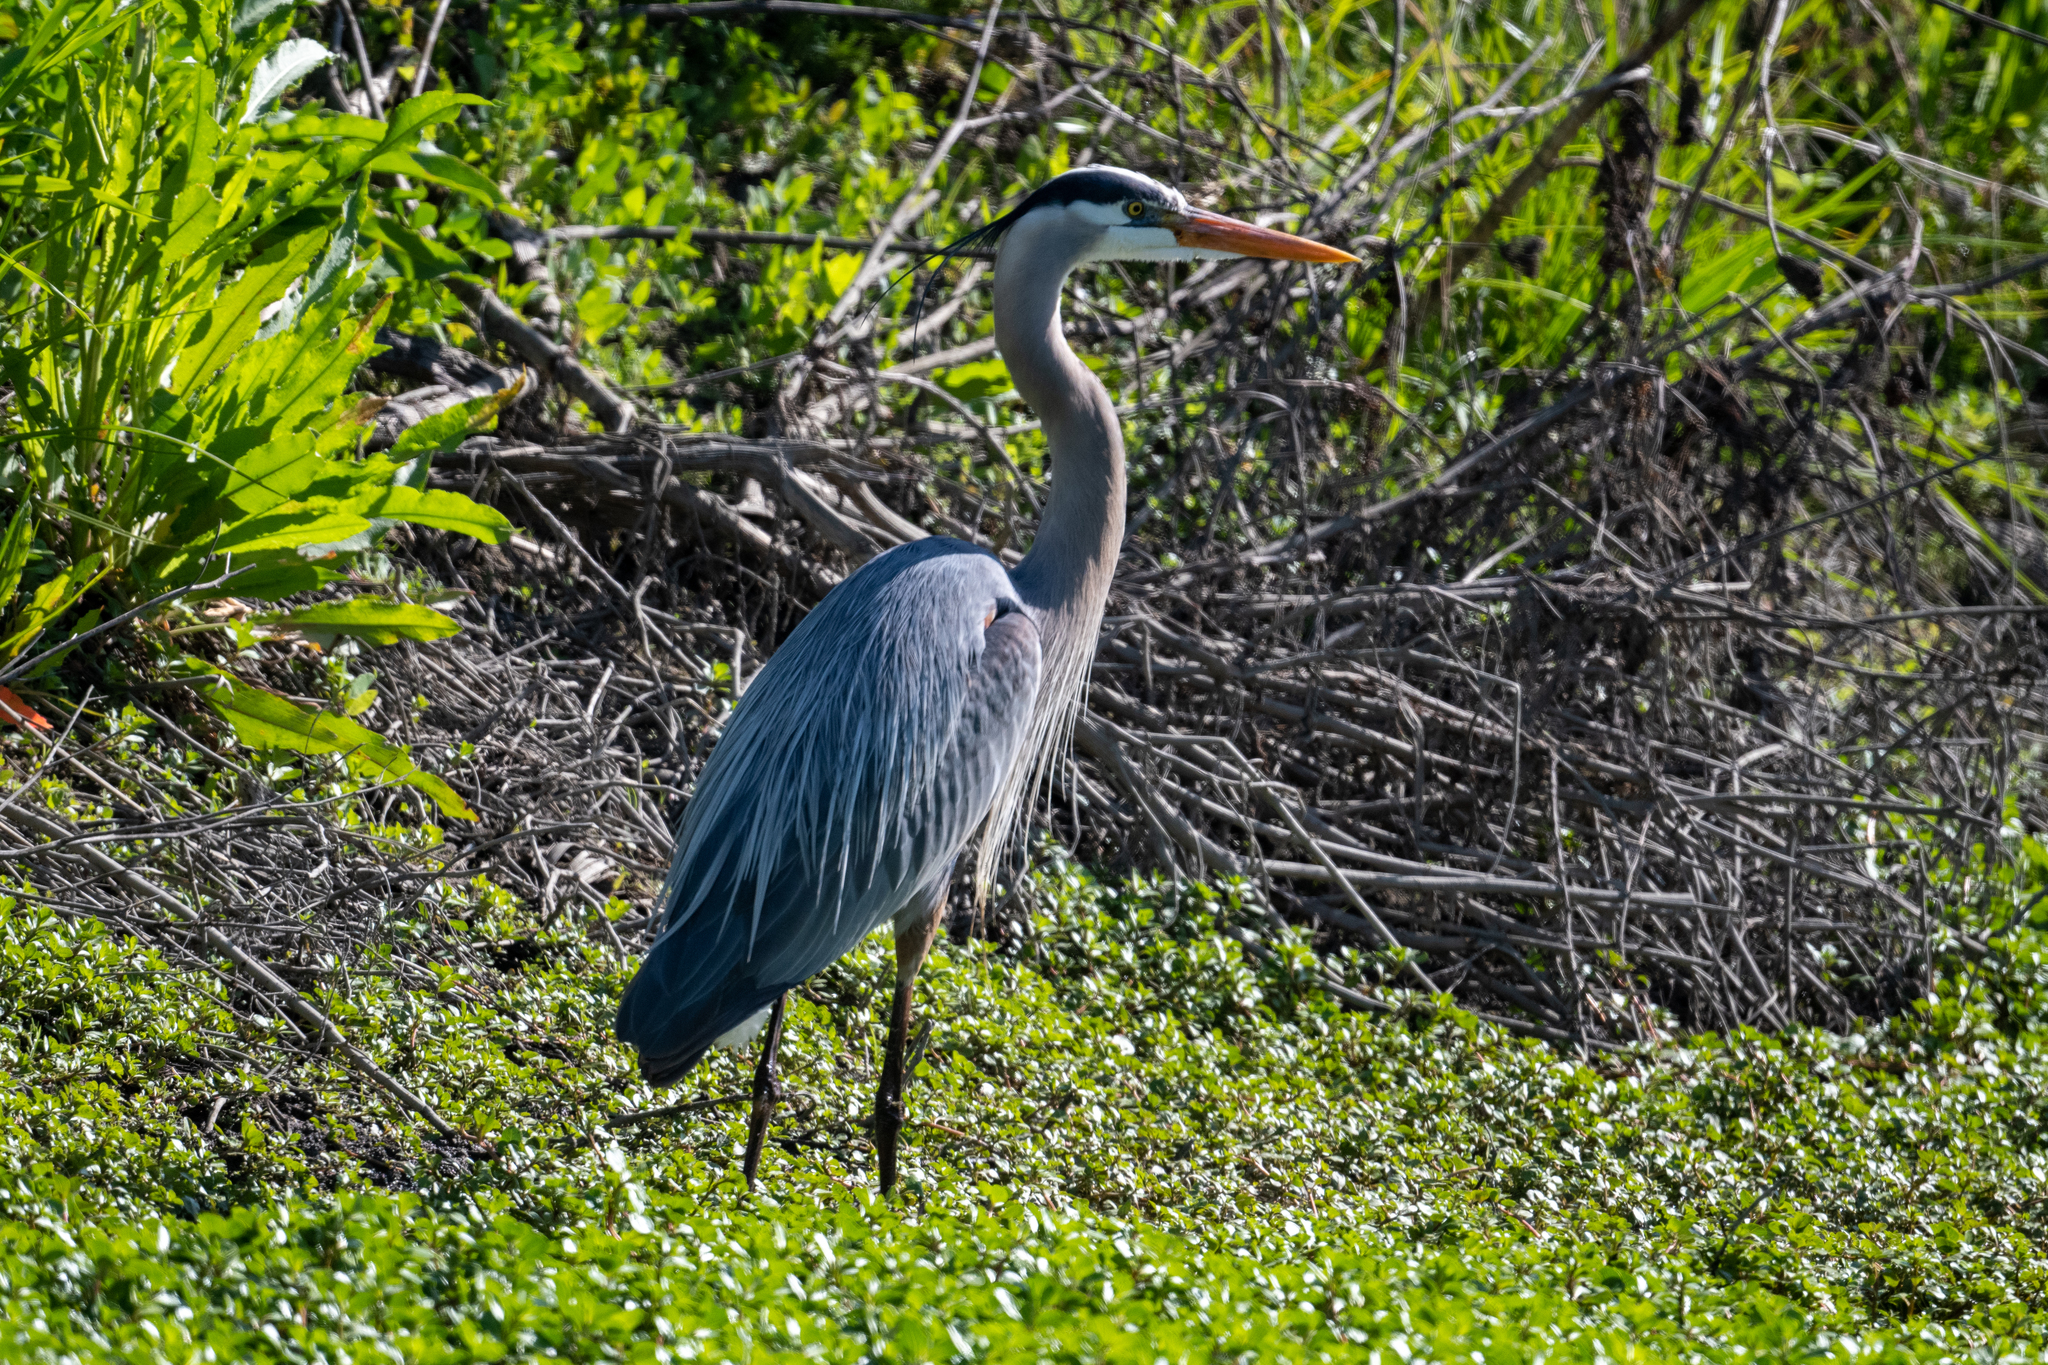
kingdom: Animalia
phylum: Chordata
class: Aves
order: Pelecaniformes
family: Ardeidae
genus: Ardea
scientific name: Ardea herodias
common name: Great blue heron
